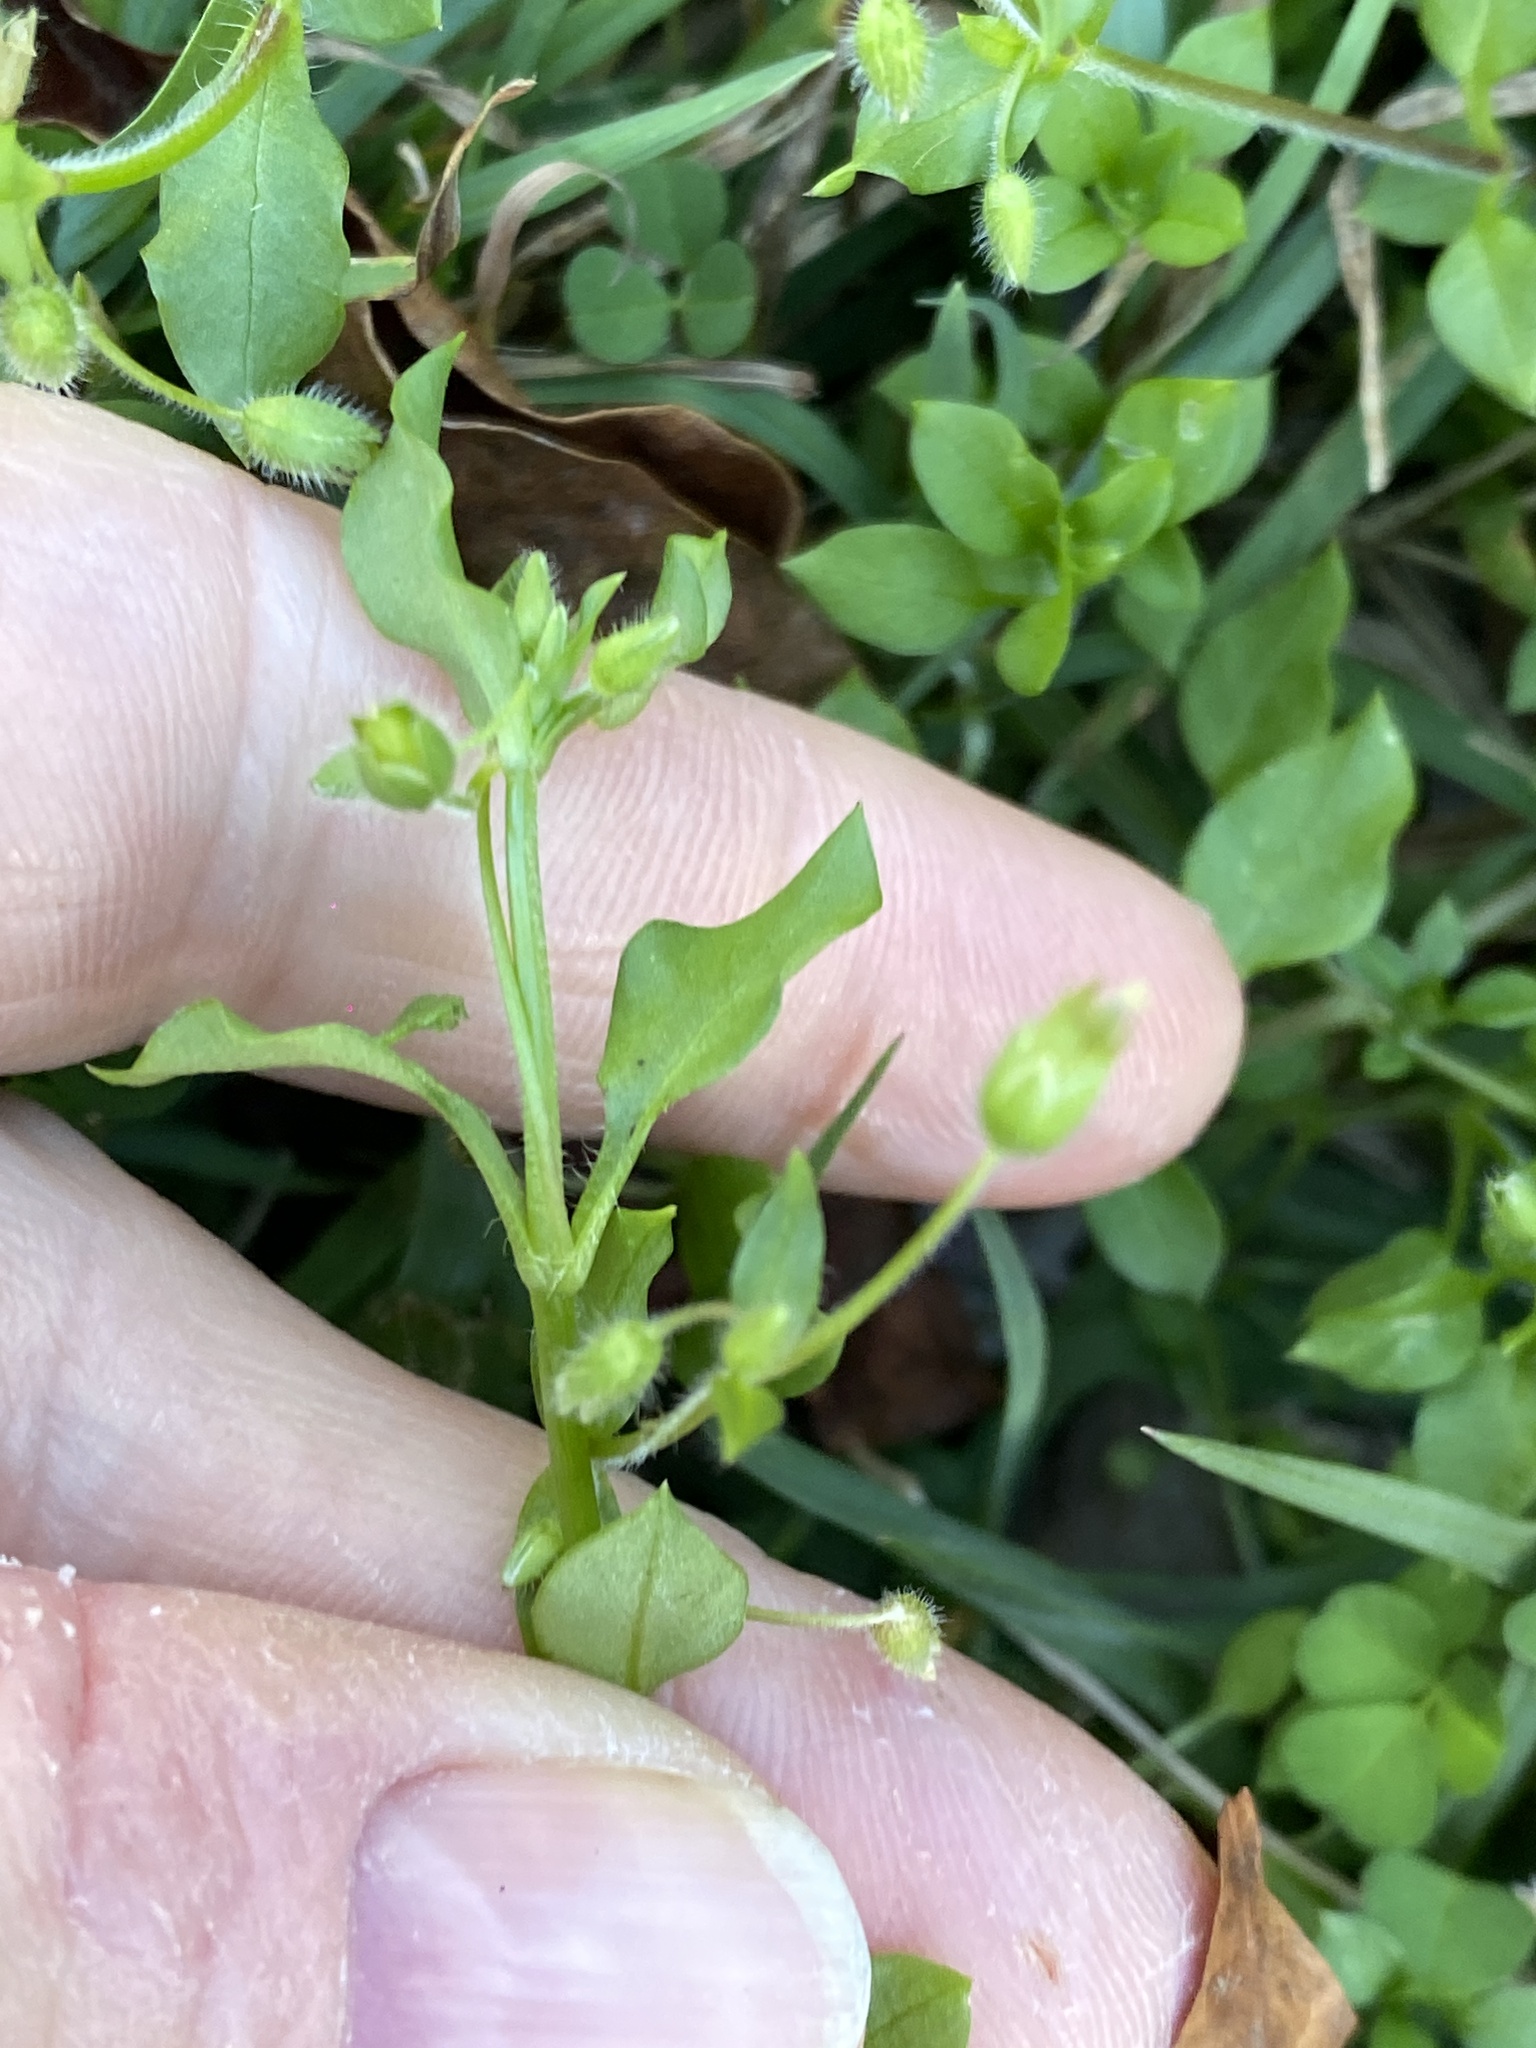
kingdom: Plantae
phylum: Tracheophyta
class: Magnoliopsida
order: Caryophyllales
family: Caryophyllaceae
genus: Stellaria
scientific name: Stellaria media
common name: Common chickweed
